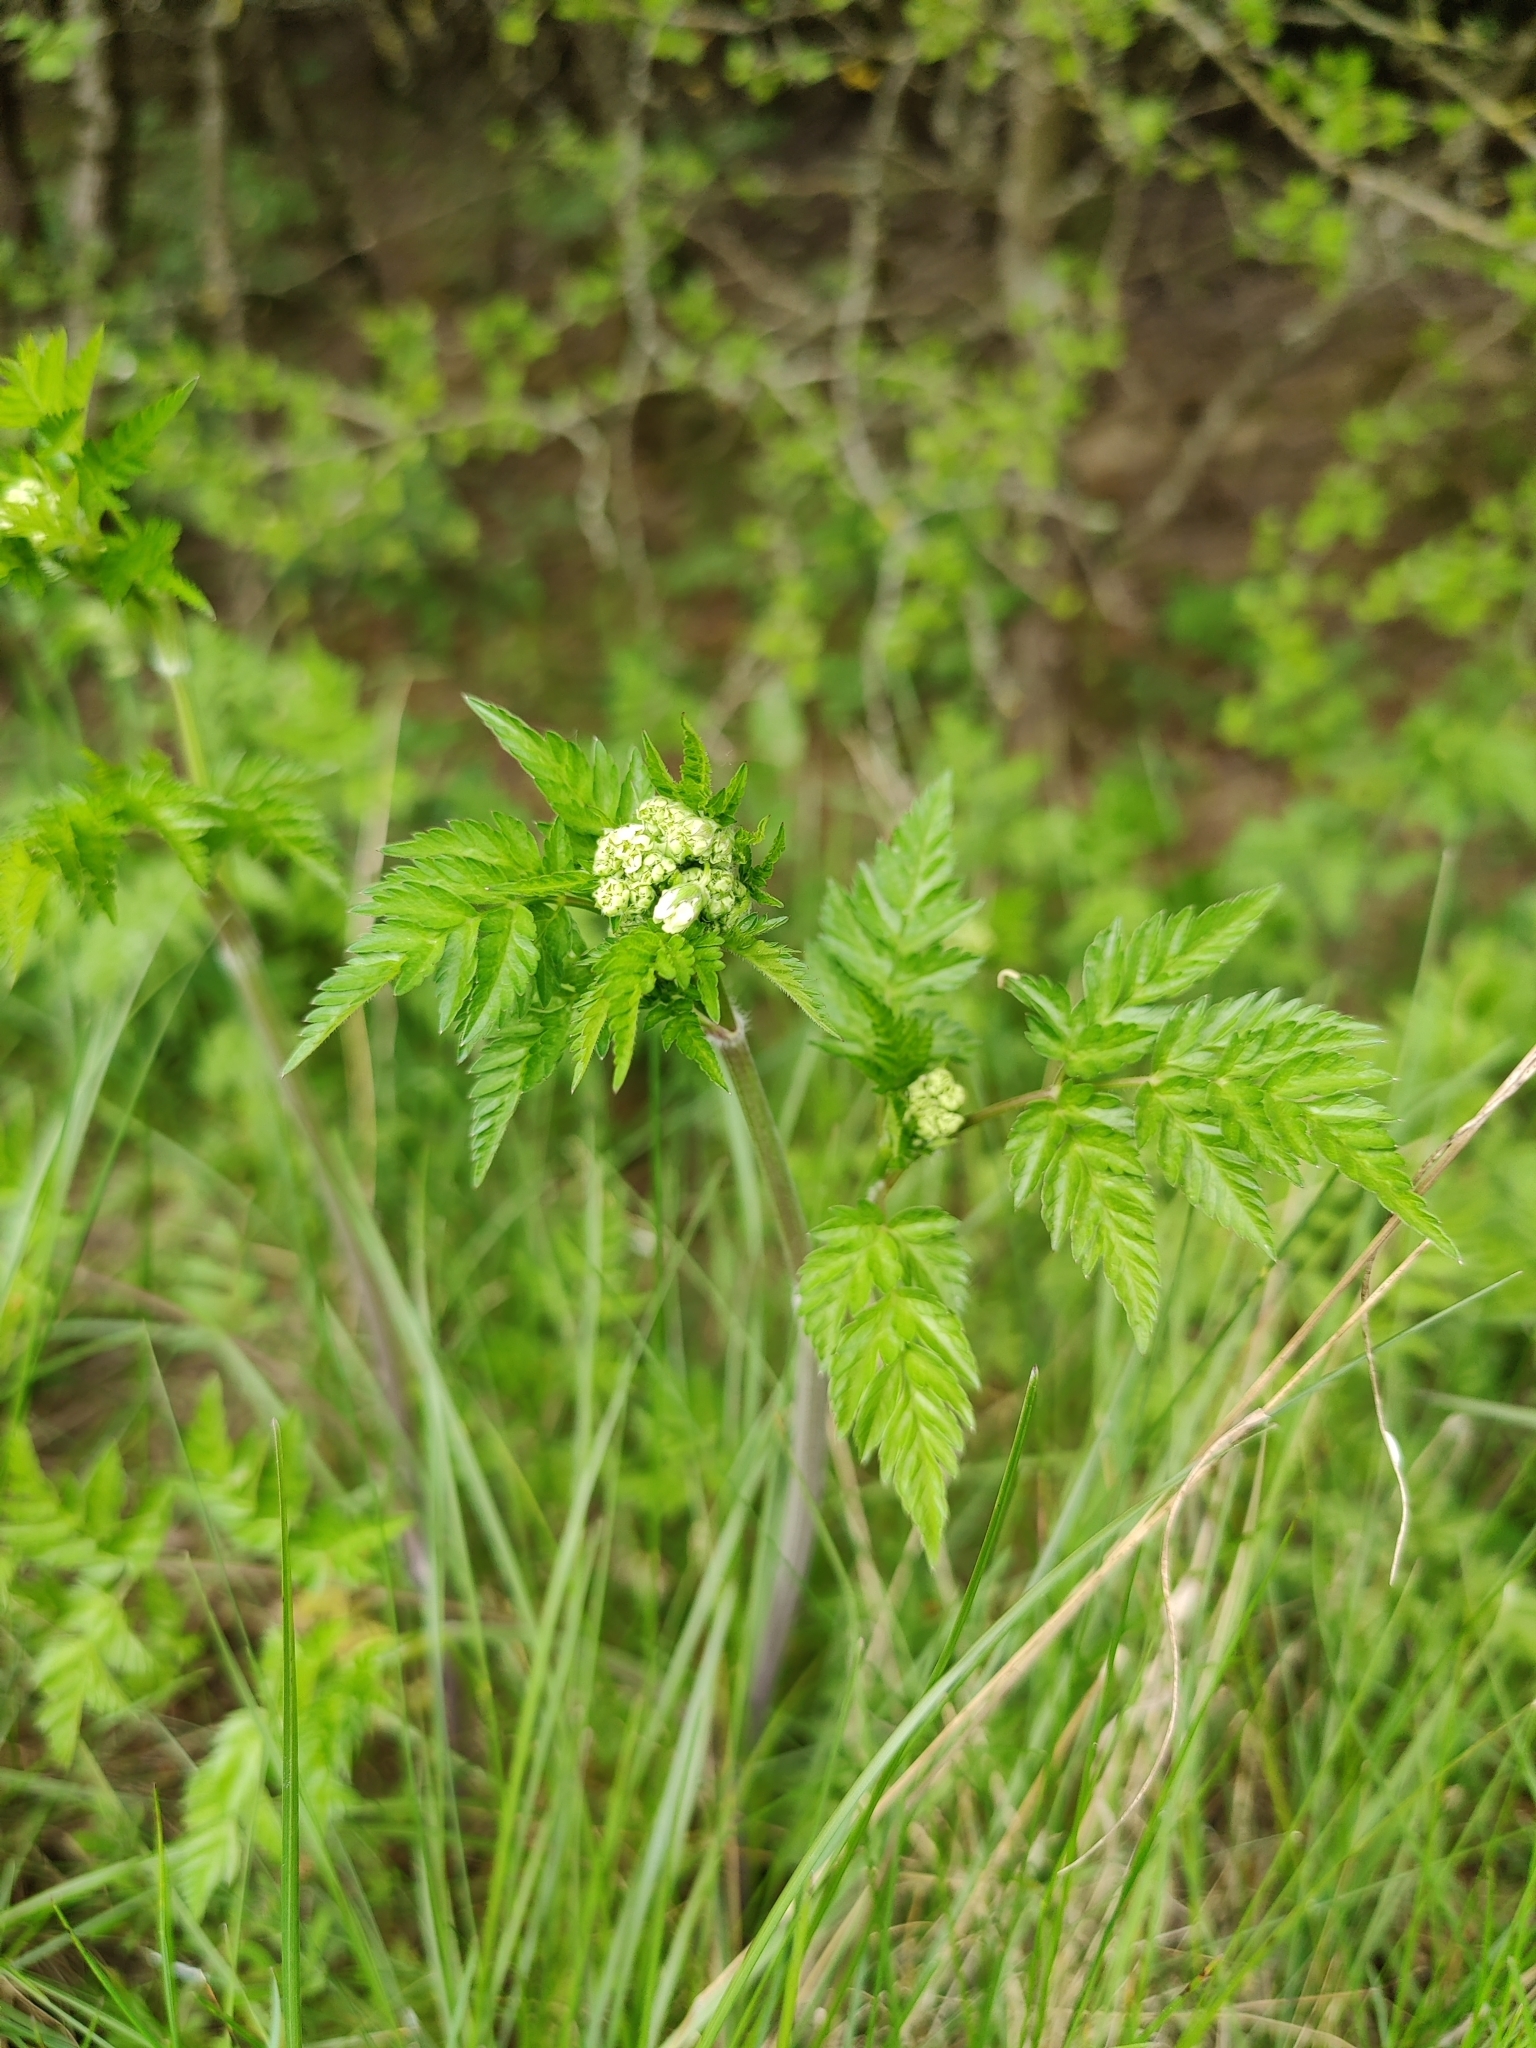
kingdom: Plantae
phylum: Tracheophyta
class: Magnoliopsida
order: Apiales
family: Apiaceae
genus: Anthriscus
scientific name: Anthriscus sylvestris
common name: Cow parsley
